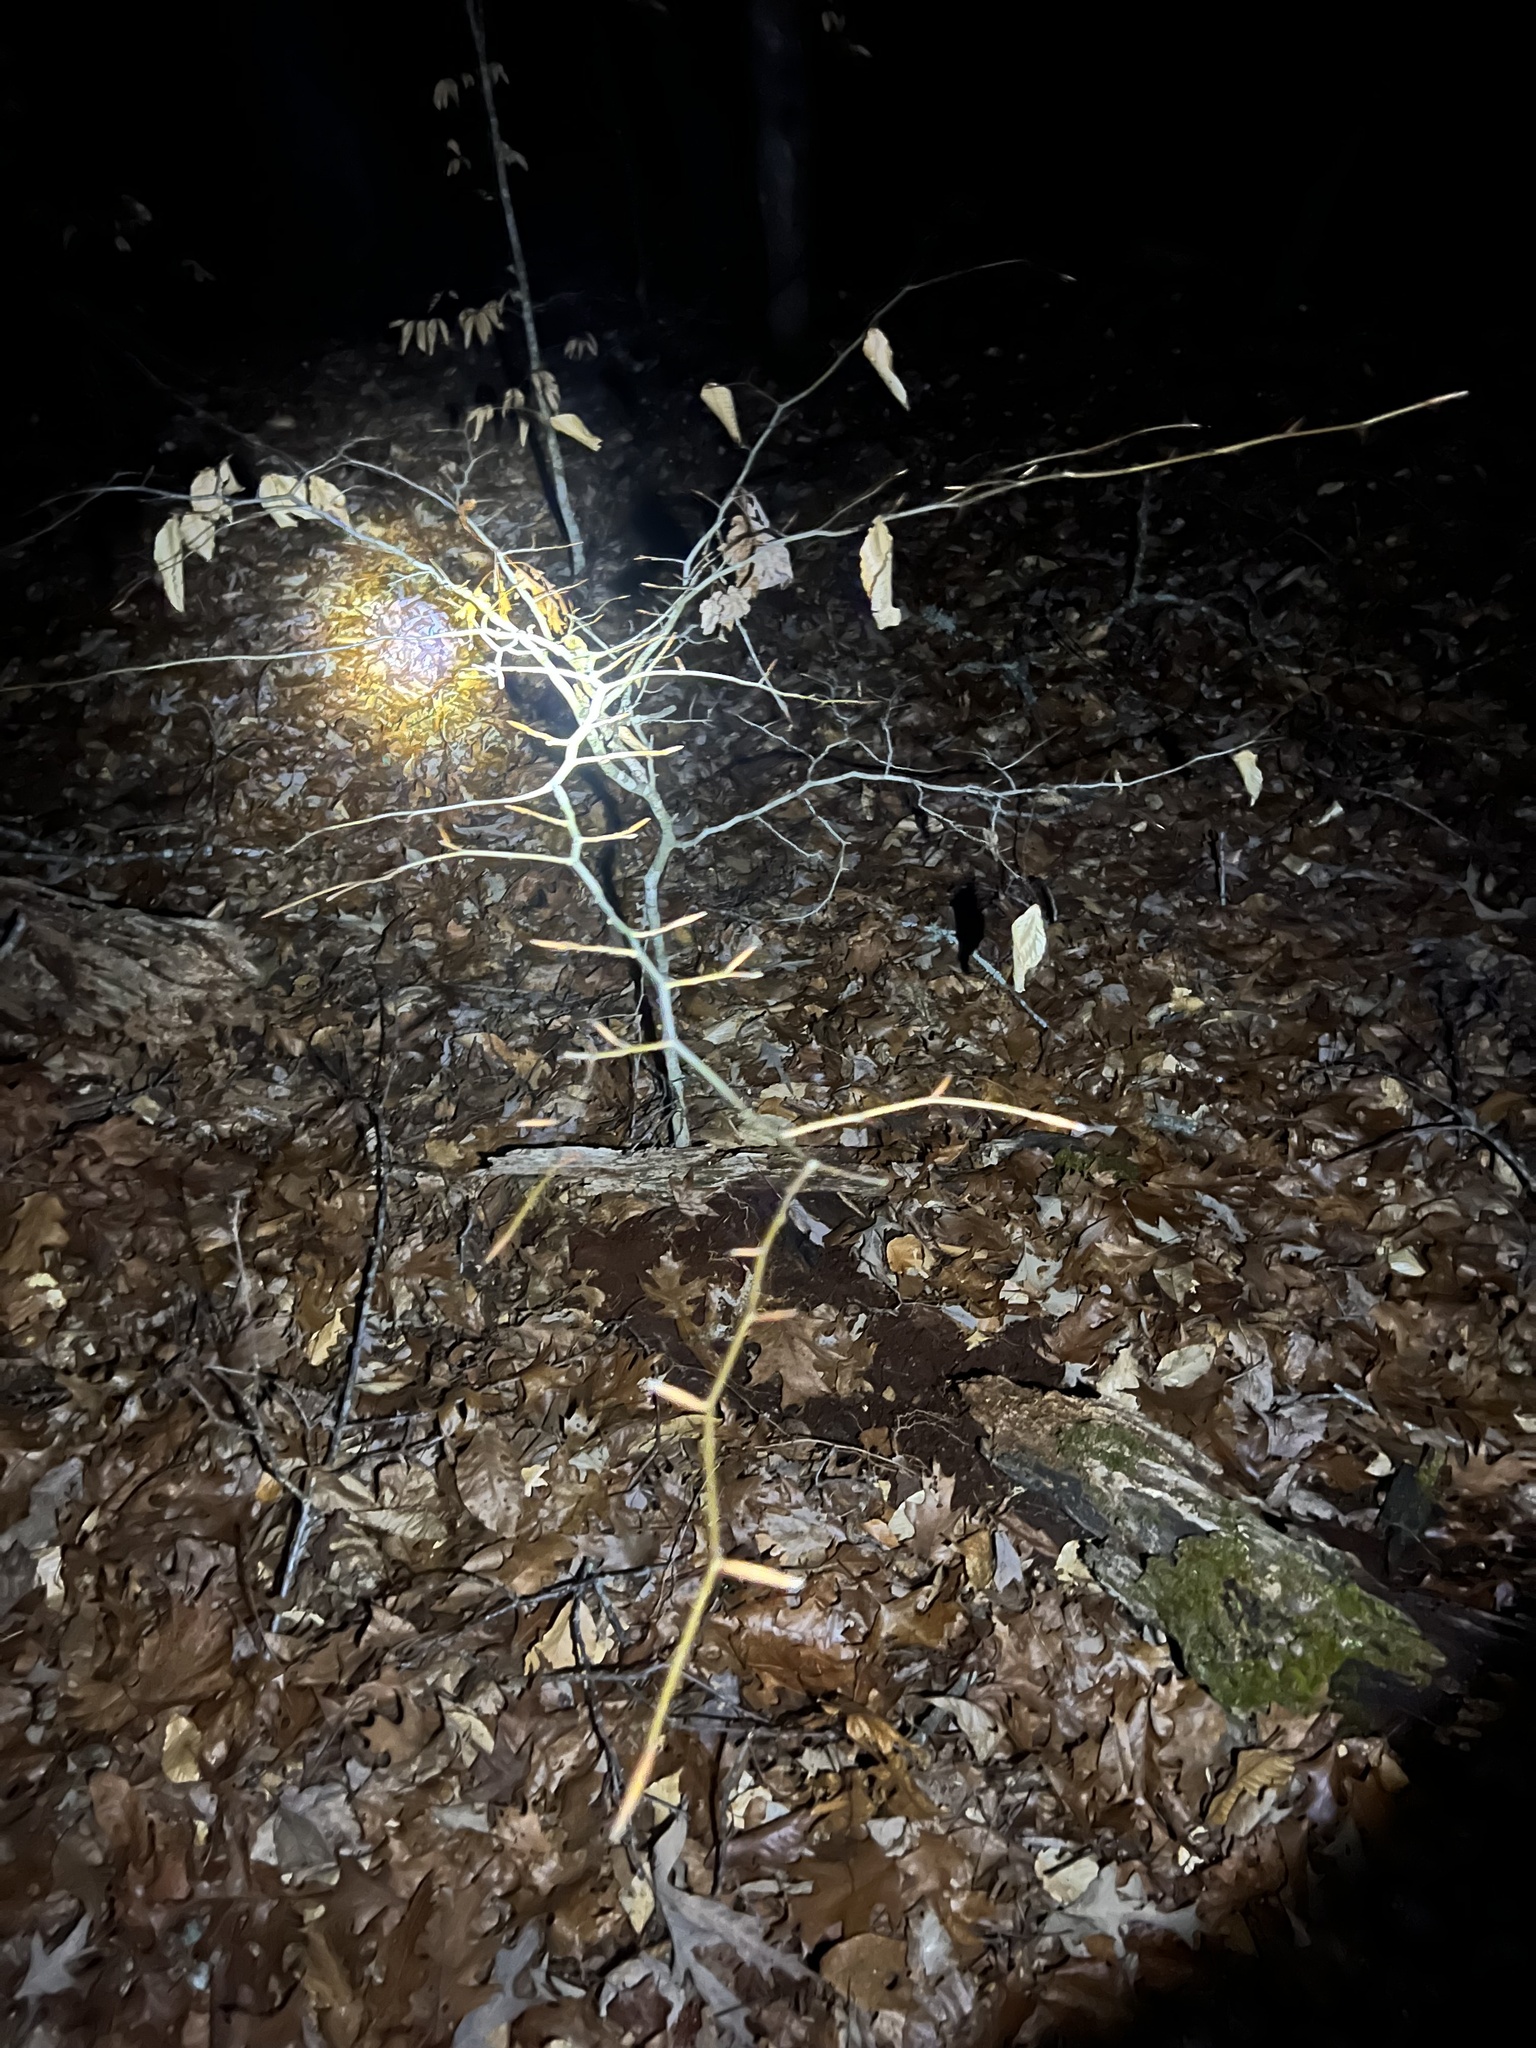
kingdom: Plantae
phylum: Tracheophyta
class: Magnoliopsida
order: Fagales
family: Fagaceae
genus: Fagus
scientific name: Fagus grandifolia
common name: American beech
